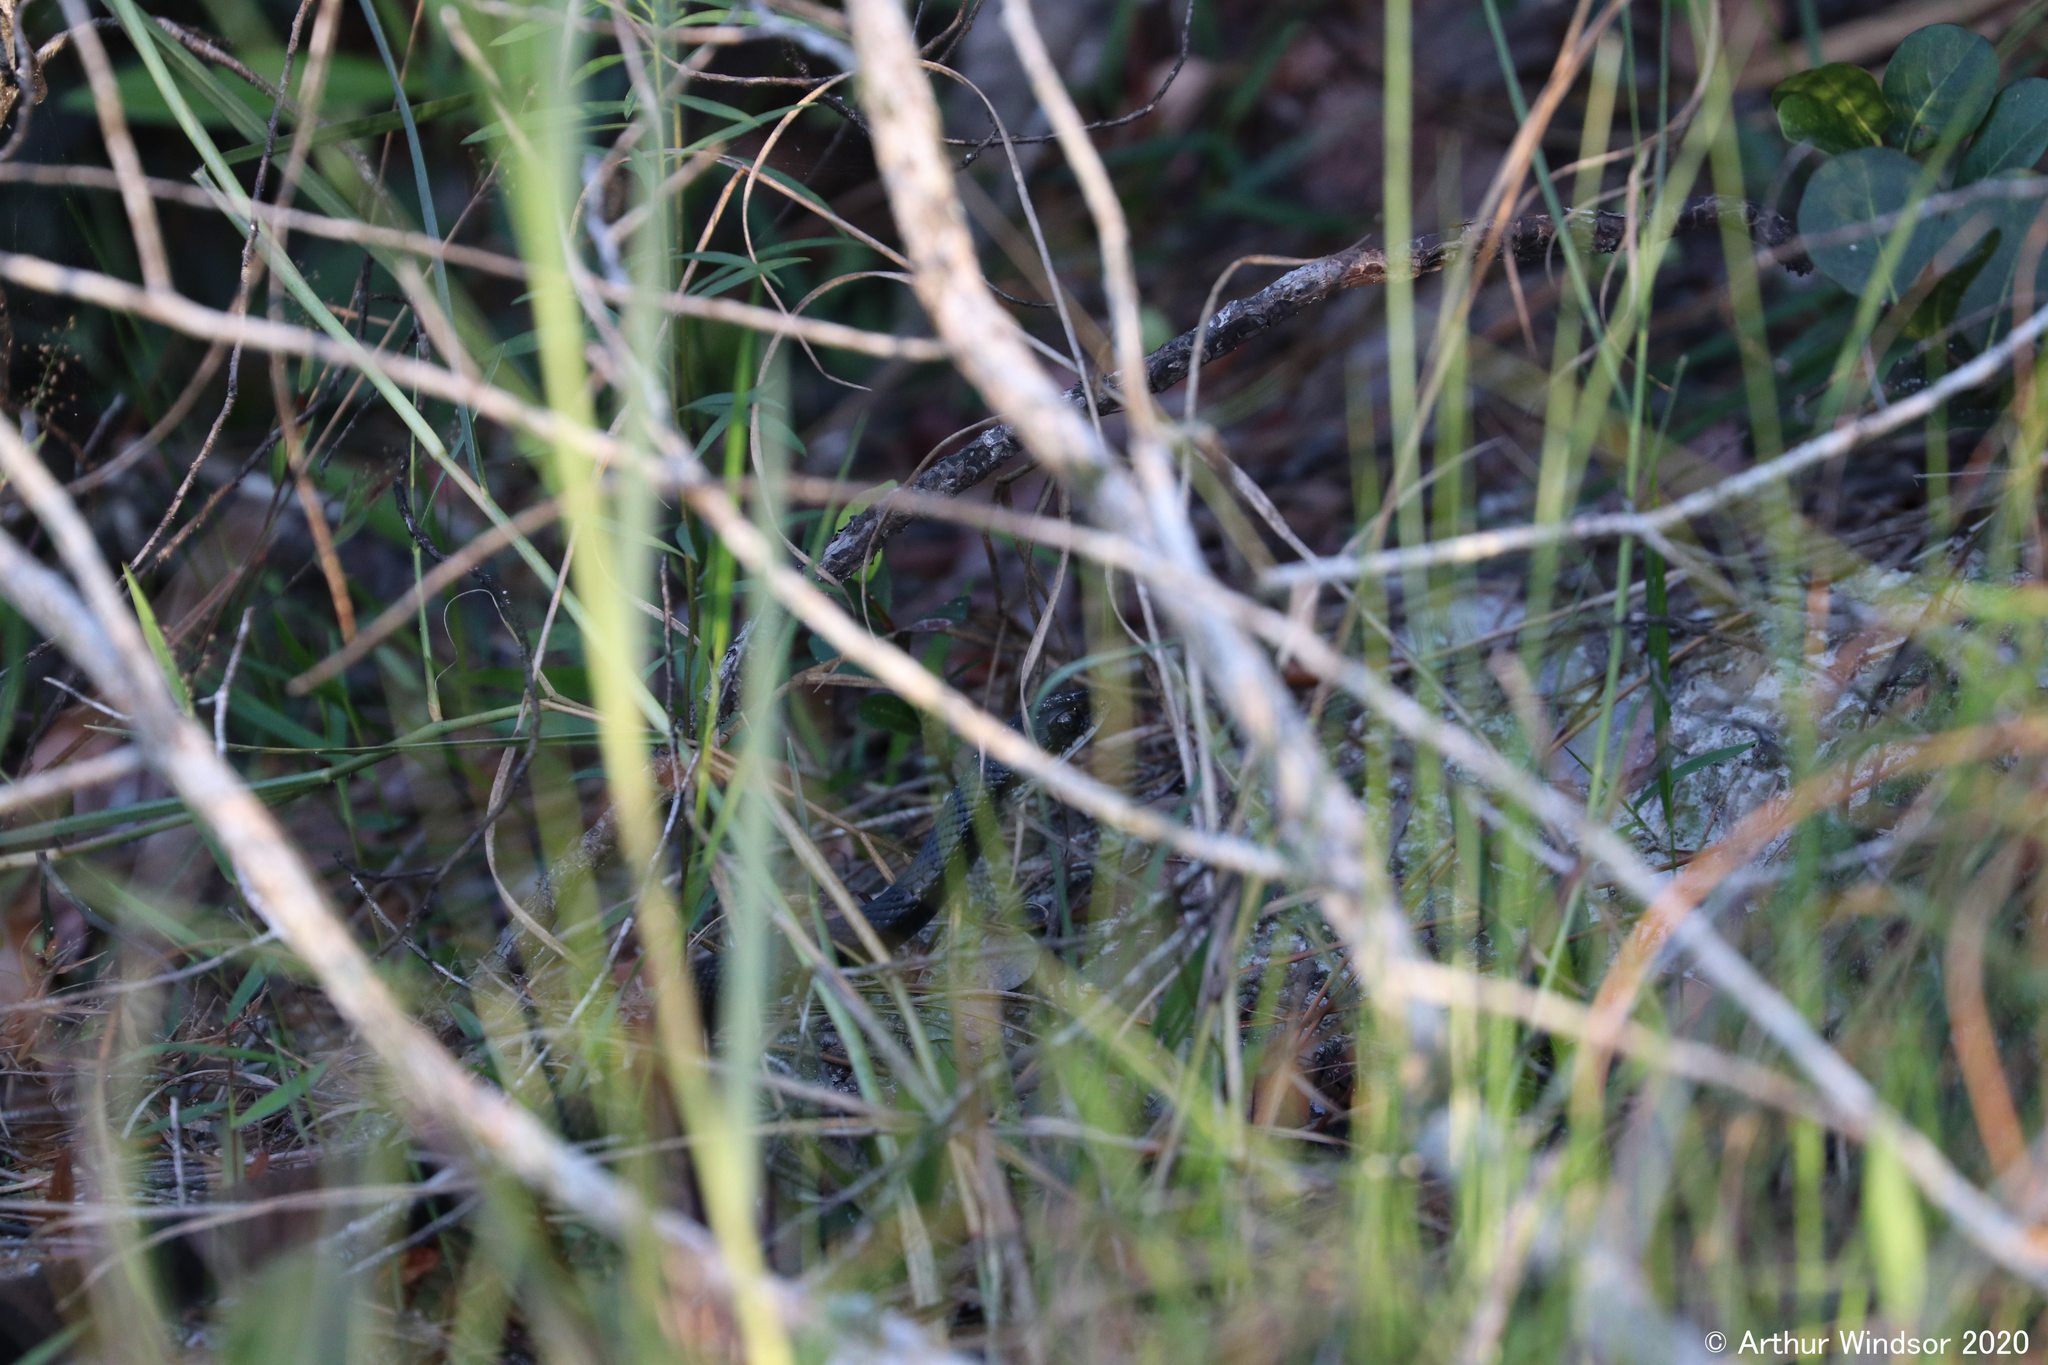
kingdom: Animalia
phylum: Chordata
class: Squamata
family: Colubridae
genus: Coluber
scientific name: Coluber constrictor
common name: Eastern racer
